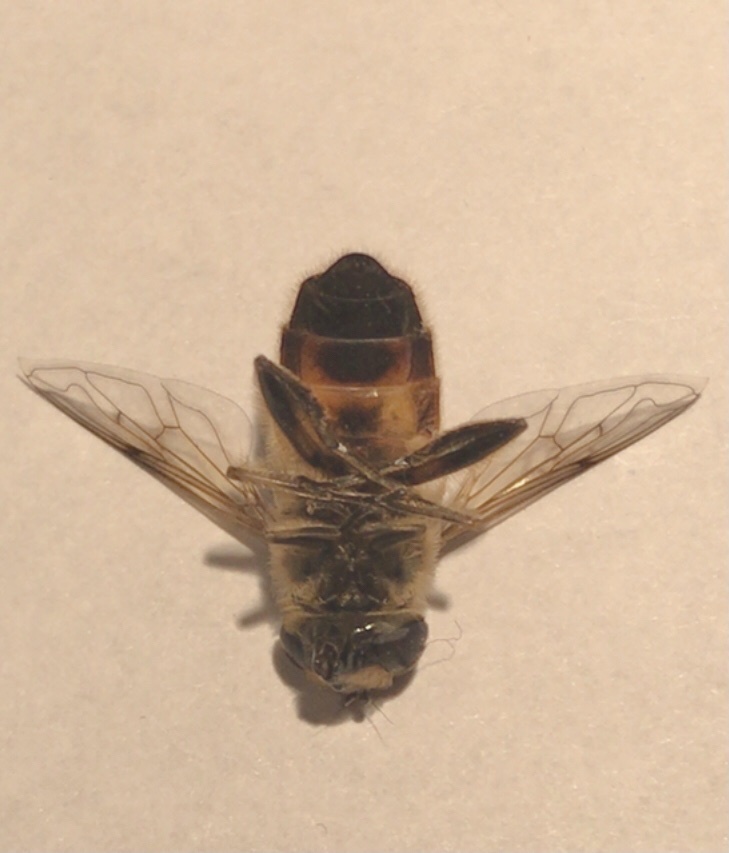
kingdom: Animalia
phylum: Arthropoda
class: Insecta
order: Diptera
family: Syrphidae
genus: Eristalis
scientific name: Eristalis tenax
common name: Drone fly
